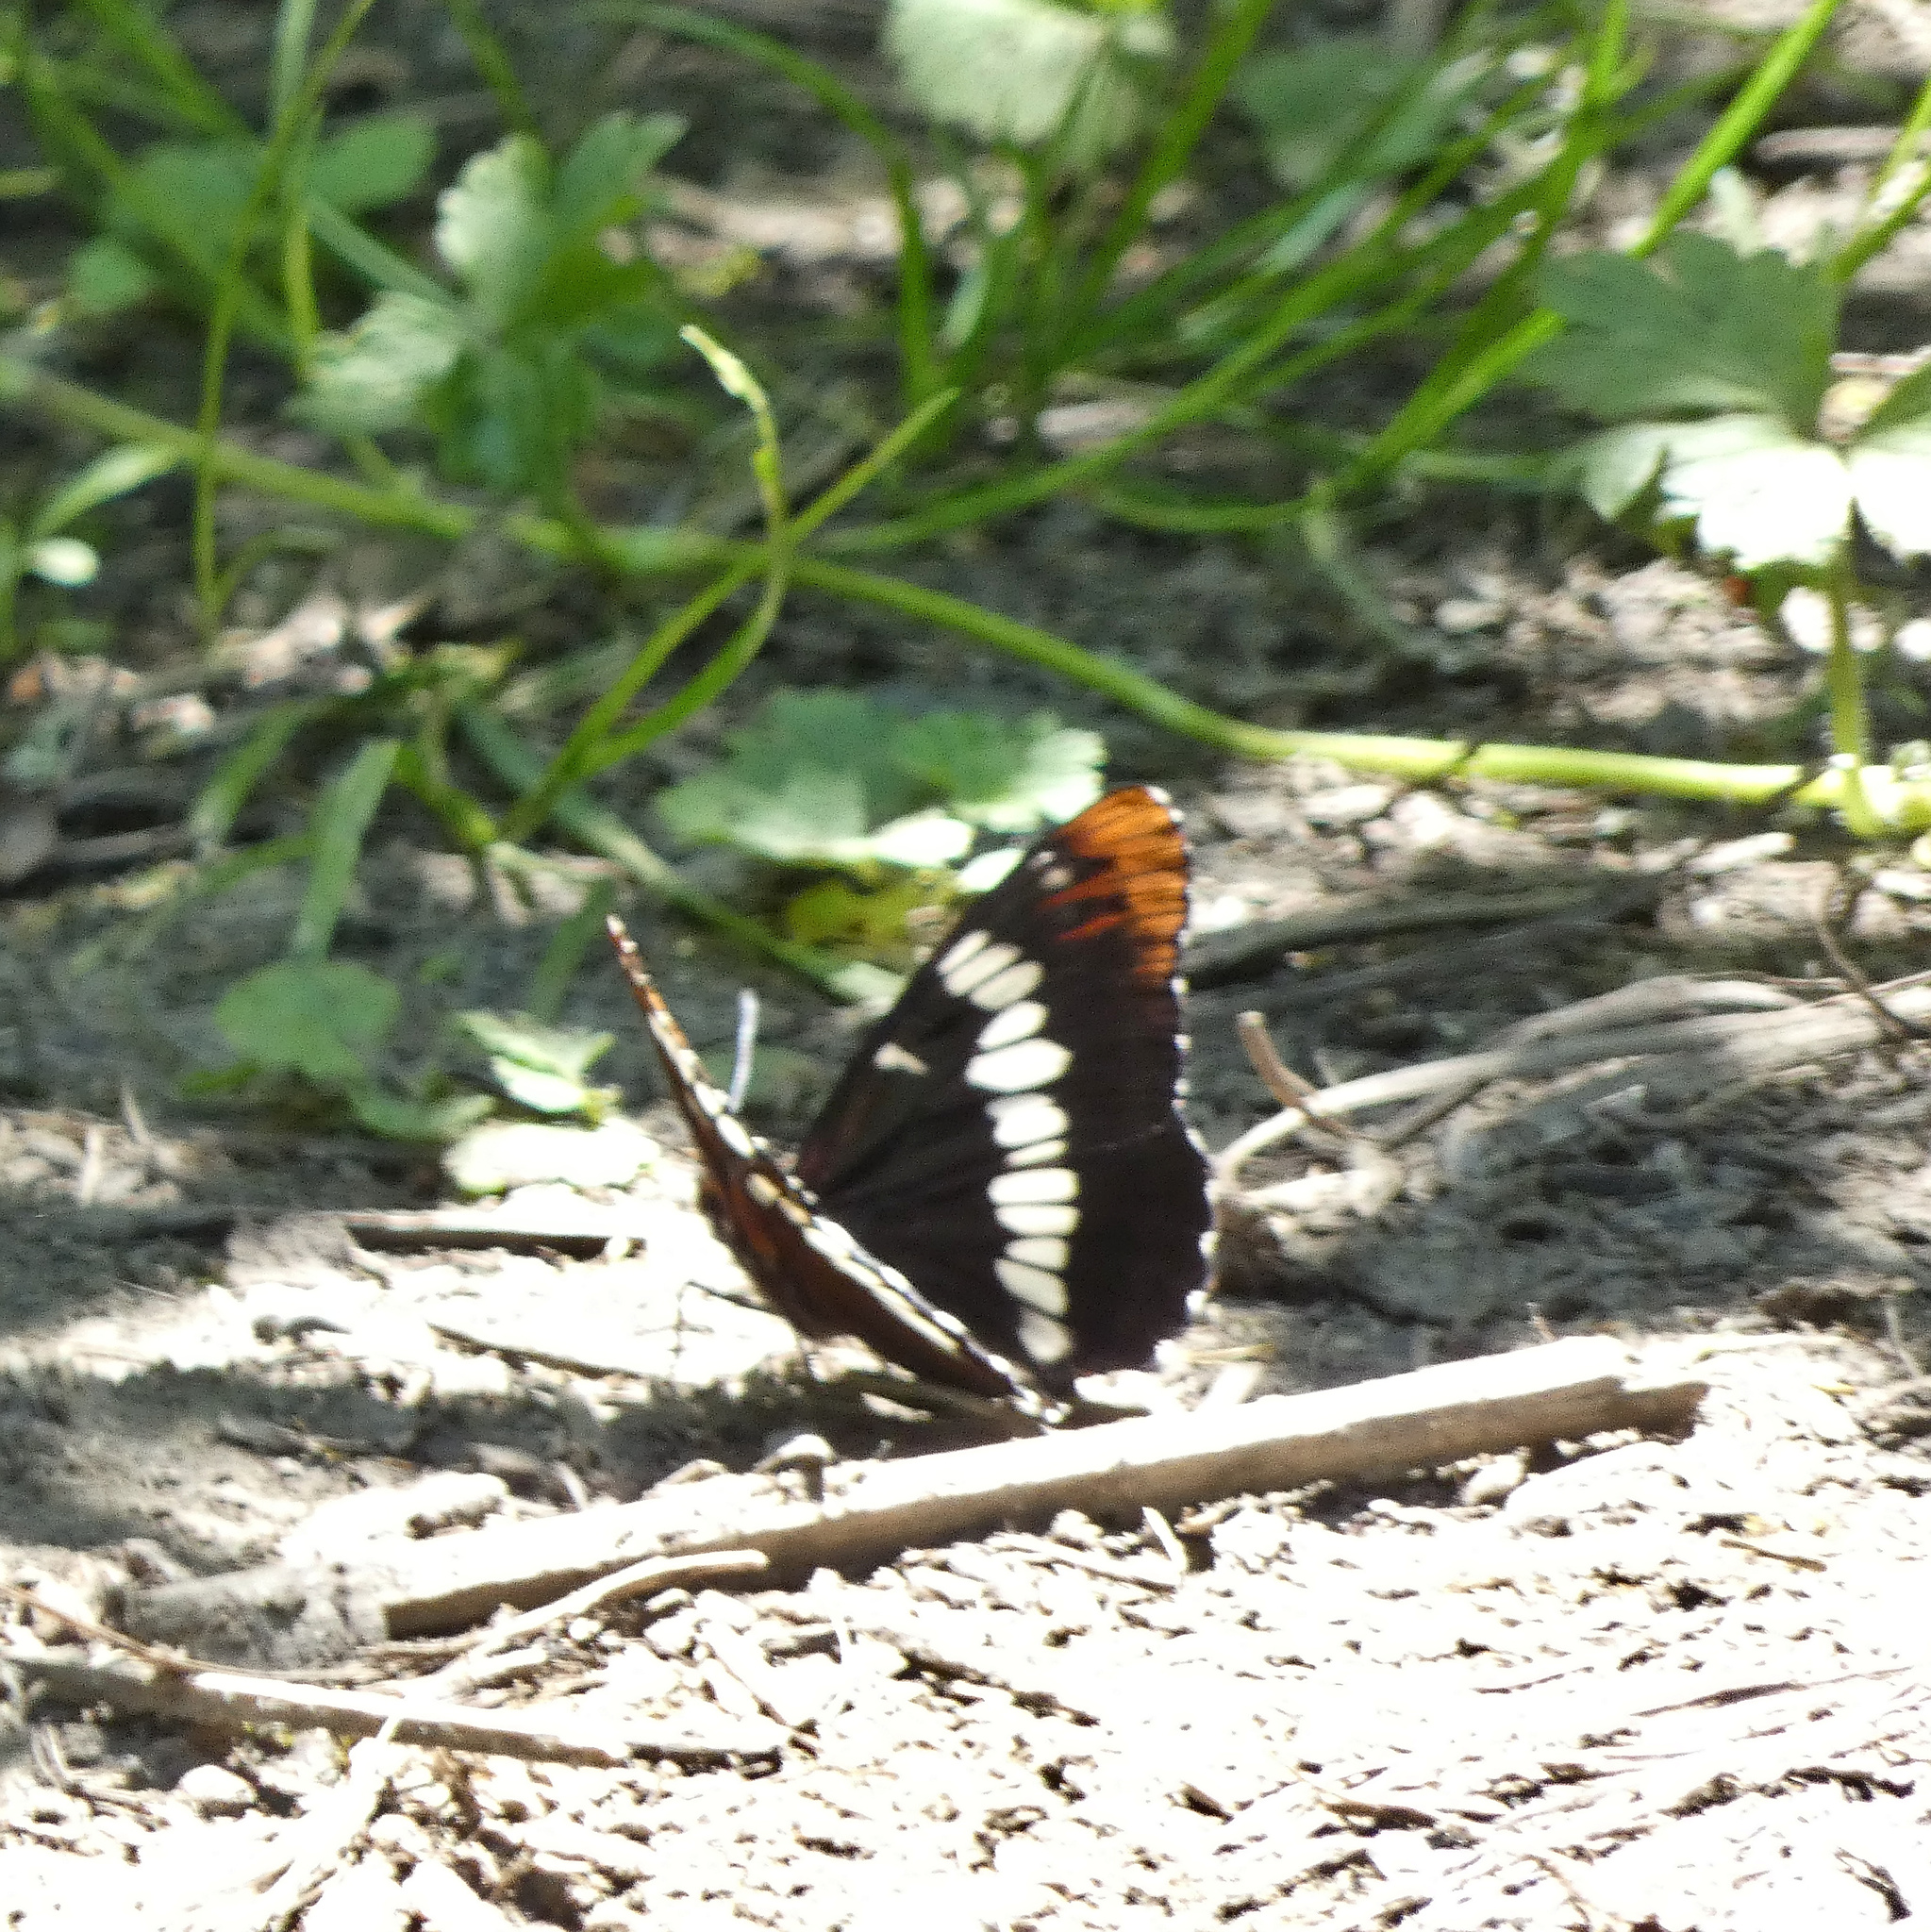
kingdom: Animalia
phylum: Arthropoda
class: Insecta
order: Lepidoptera
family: Nymphalidae
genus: Limenitis
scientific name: Limenitis lorquini
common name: Lorquin's admiral
